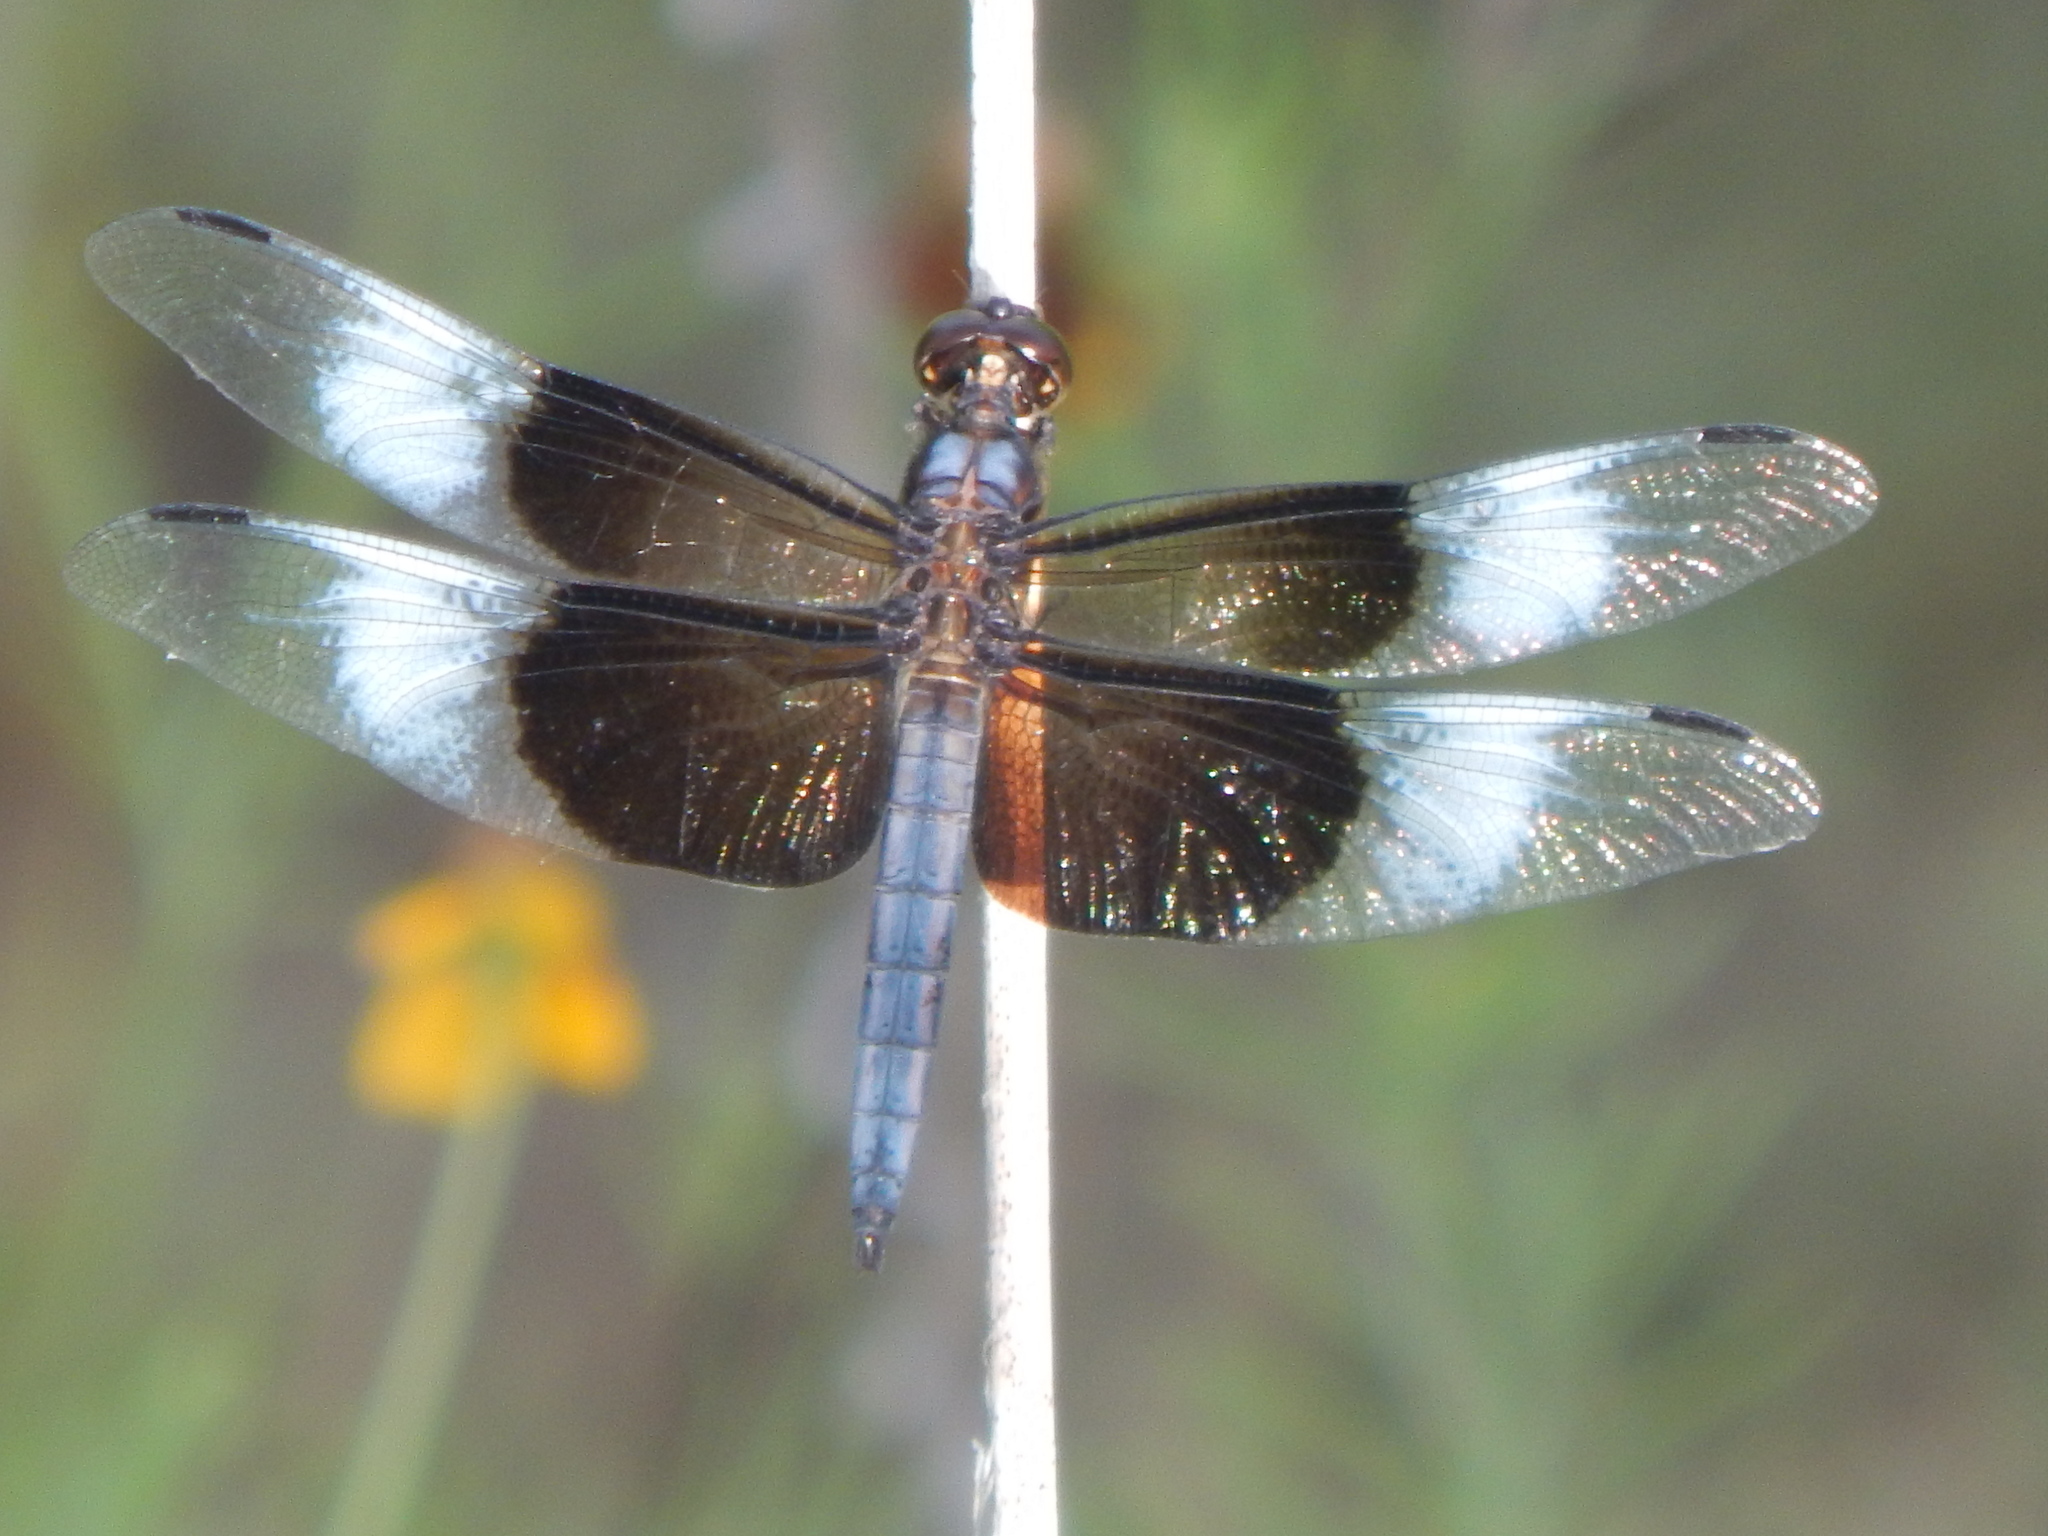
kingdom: Animalia
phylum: Arthropoda
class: Insecta
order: Odonata
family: Libellulidae
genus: Libellula
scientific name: Libellula luctuosa
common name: Widow skimmer
